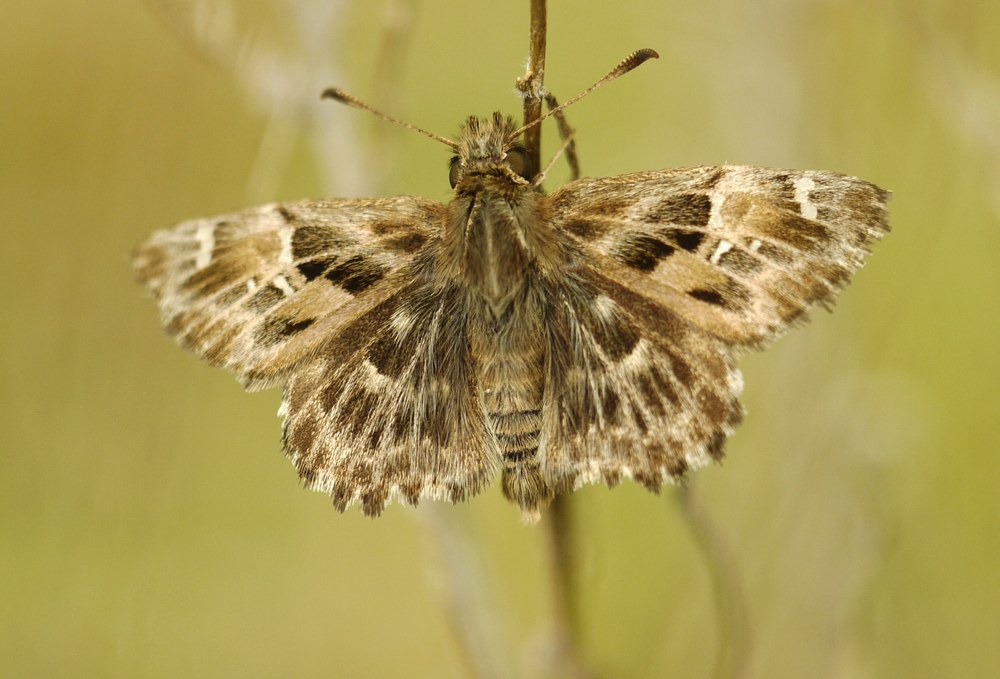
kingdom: Animalia
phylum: Arthropoda
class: Insecta
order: Lepidoptera
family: Hesperiidae
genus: Carcharodus
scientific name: Carcharodus alceae
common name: Mallow skipper
